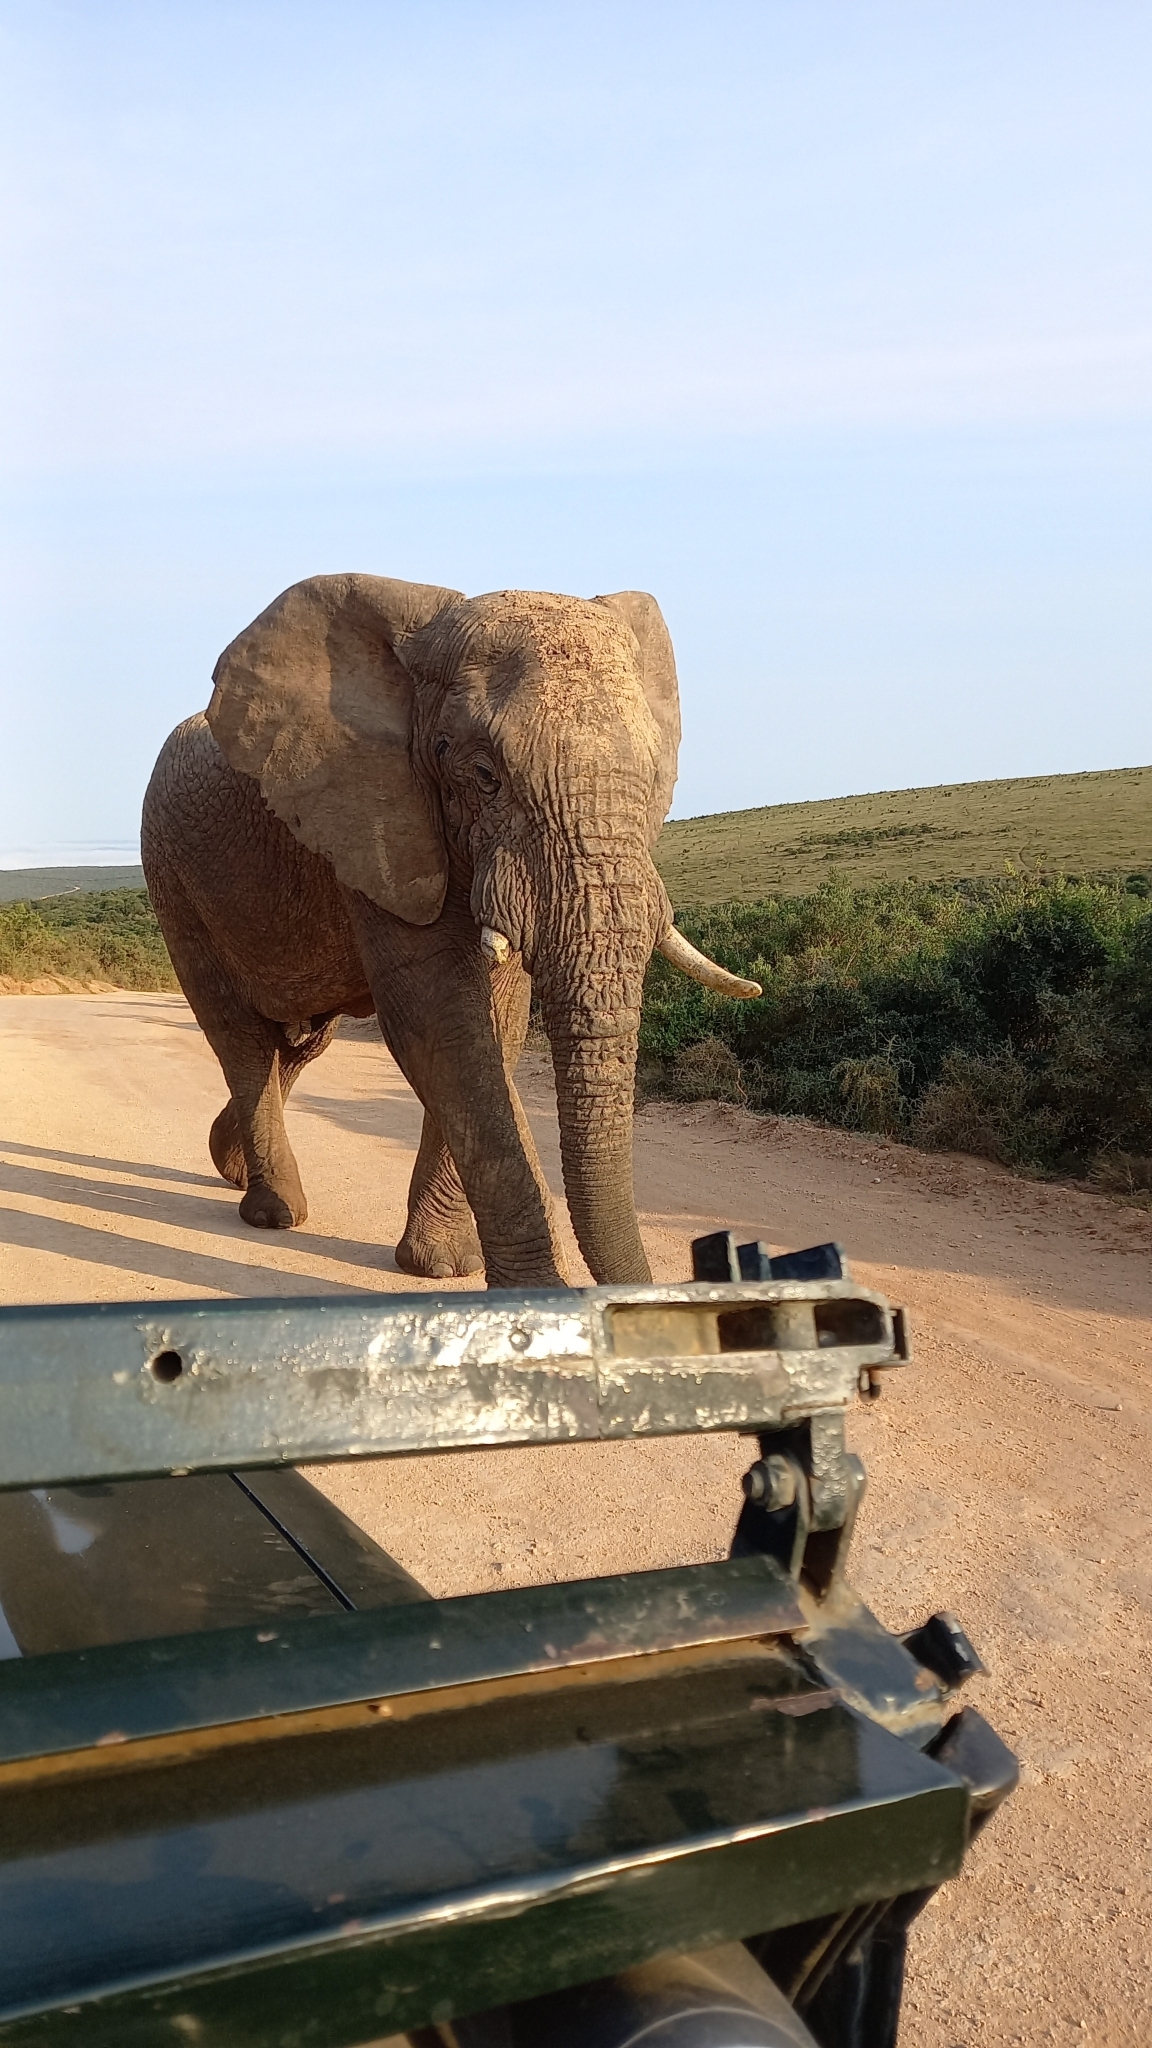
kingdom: Animalia
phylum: Chordata
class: Mammalia
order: Proboscidea
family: Elephantidae
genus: Loxodonta
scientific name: Loxodonta africana
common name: African elephant
